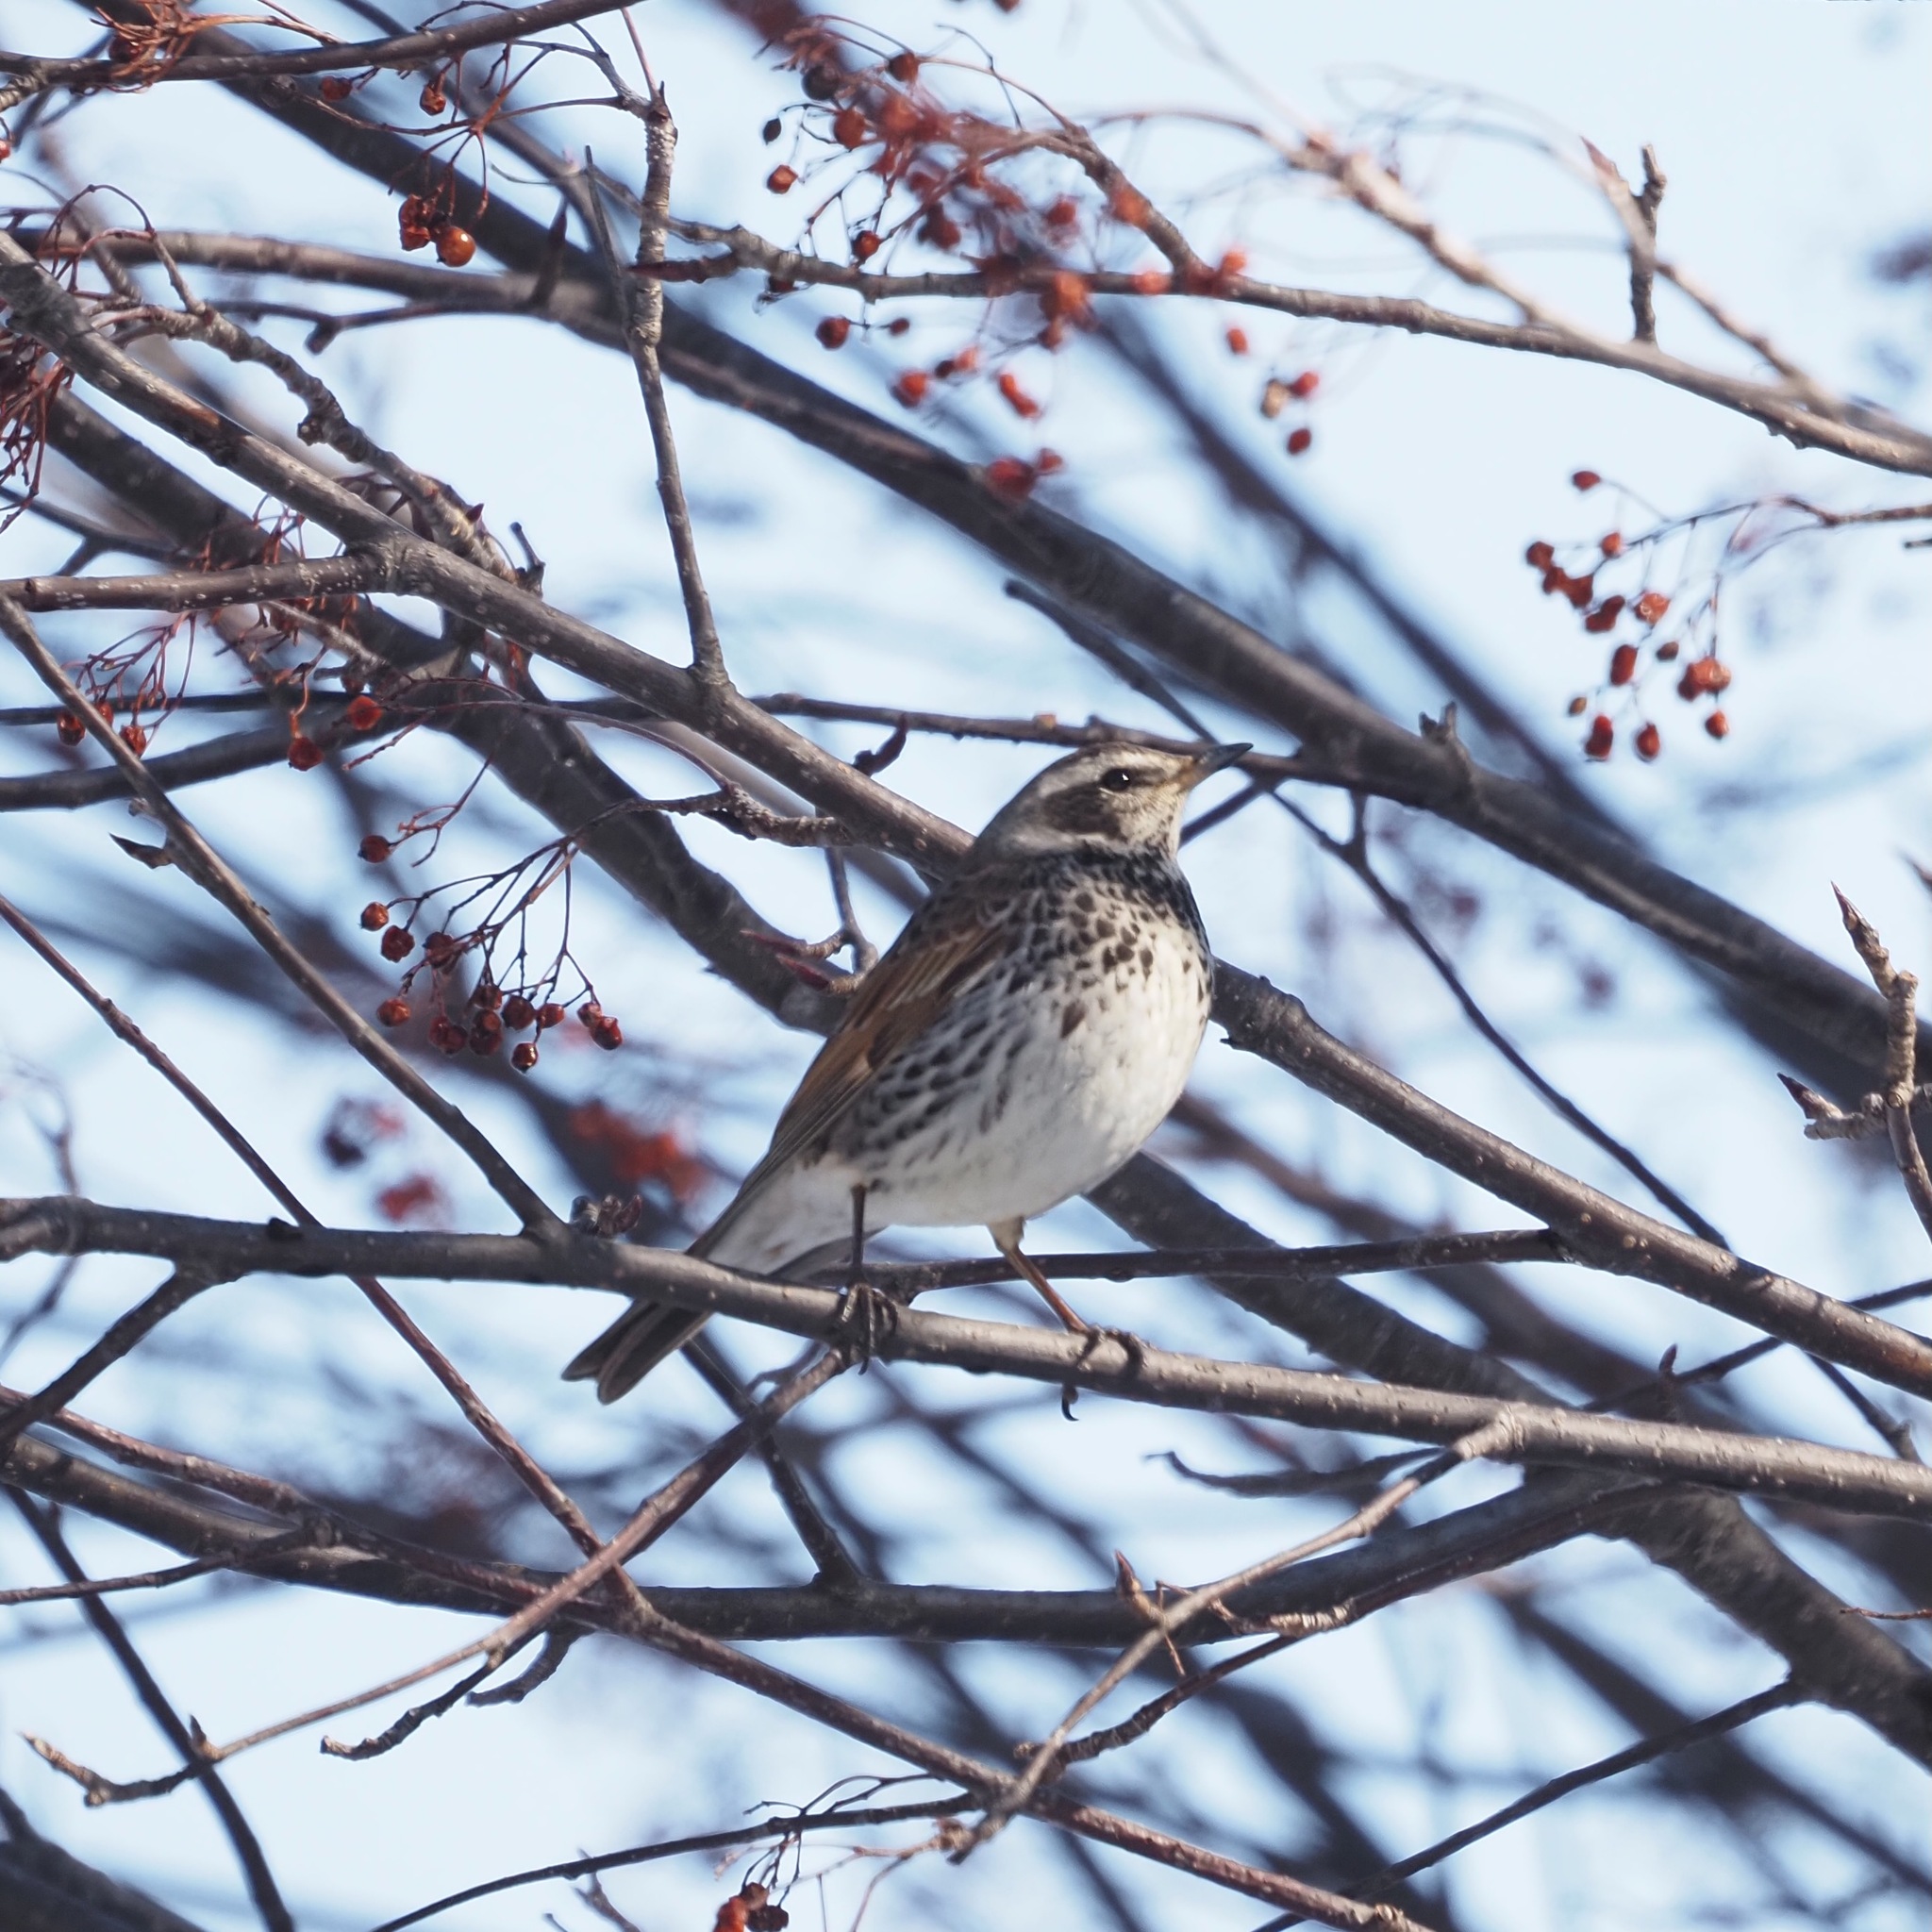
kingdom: Animalia
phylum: Chordata
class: Aves
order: Passeriformes
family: Turdidae
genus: Turdus
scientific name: Turdus eunomus
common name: Dusky thrush
